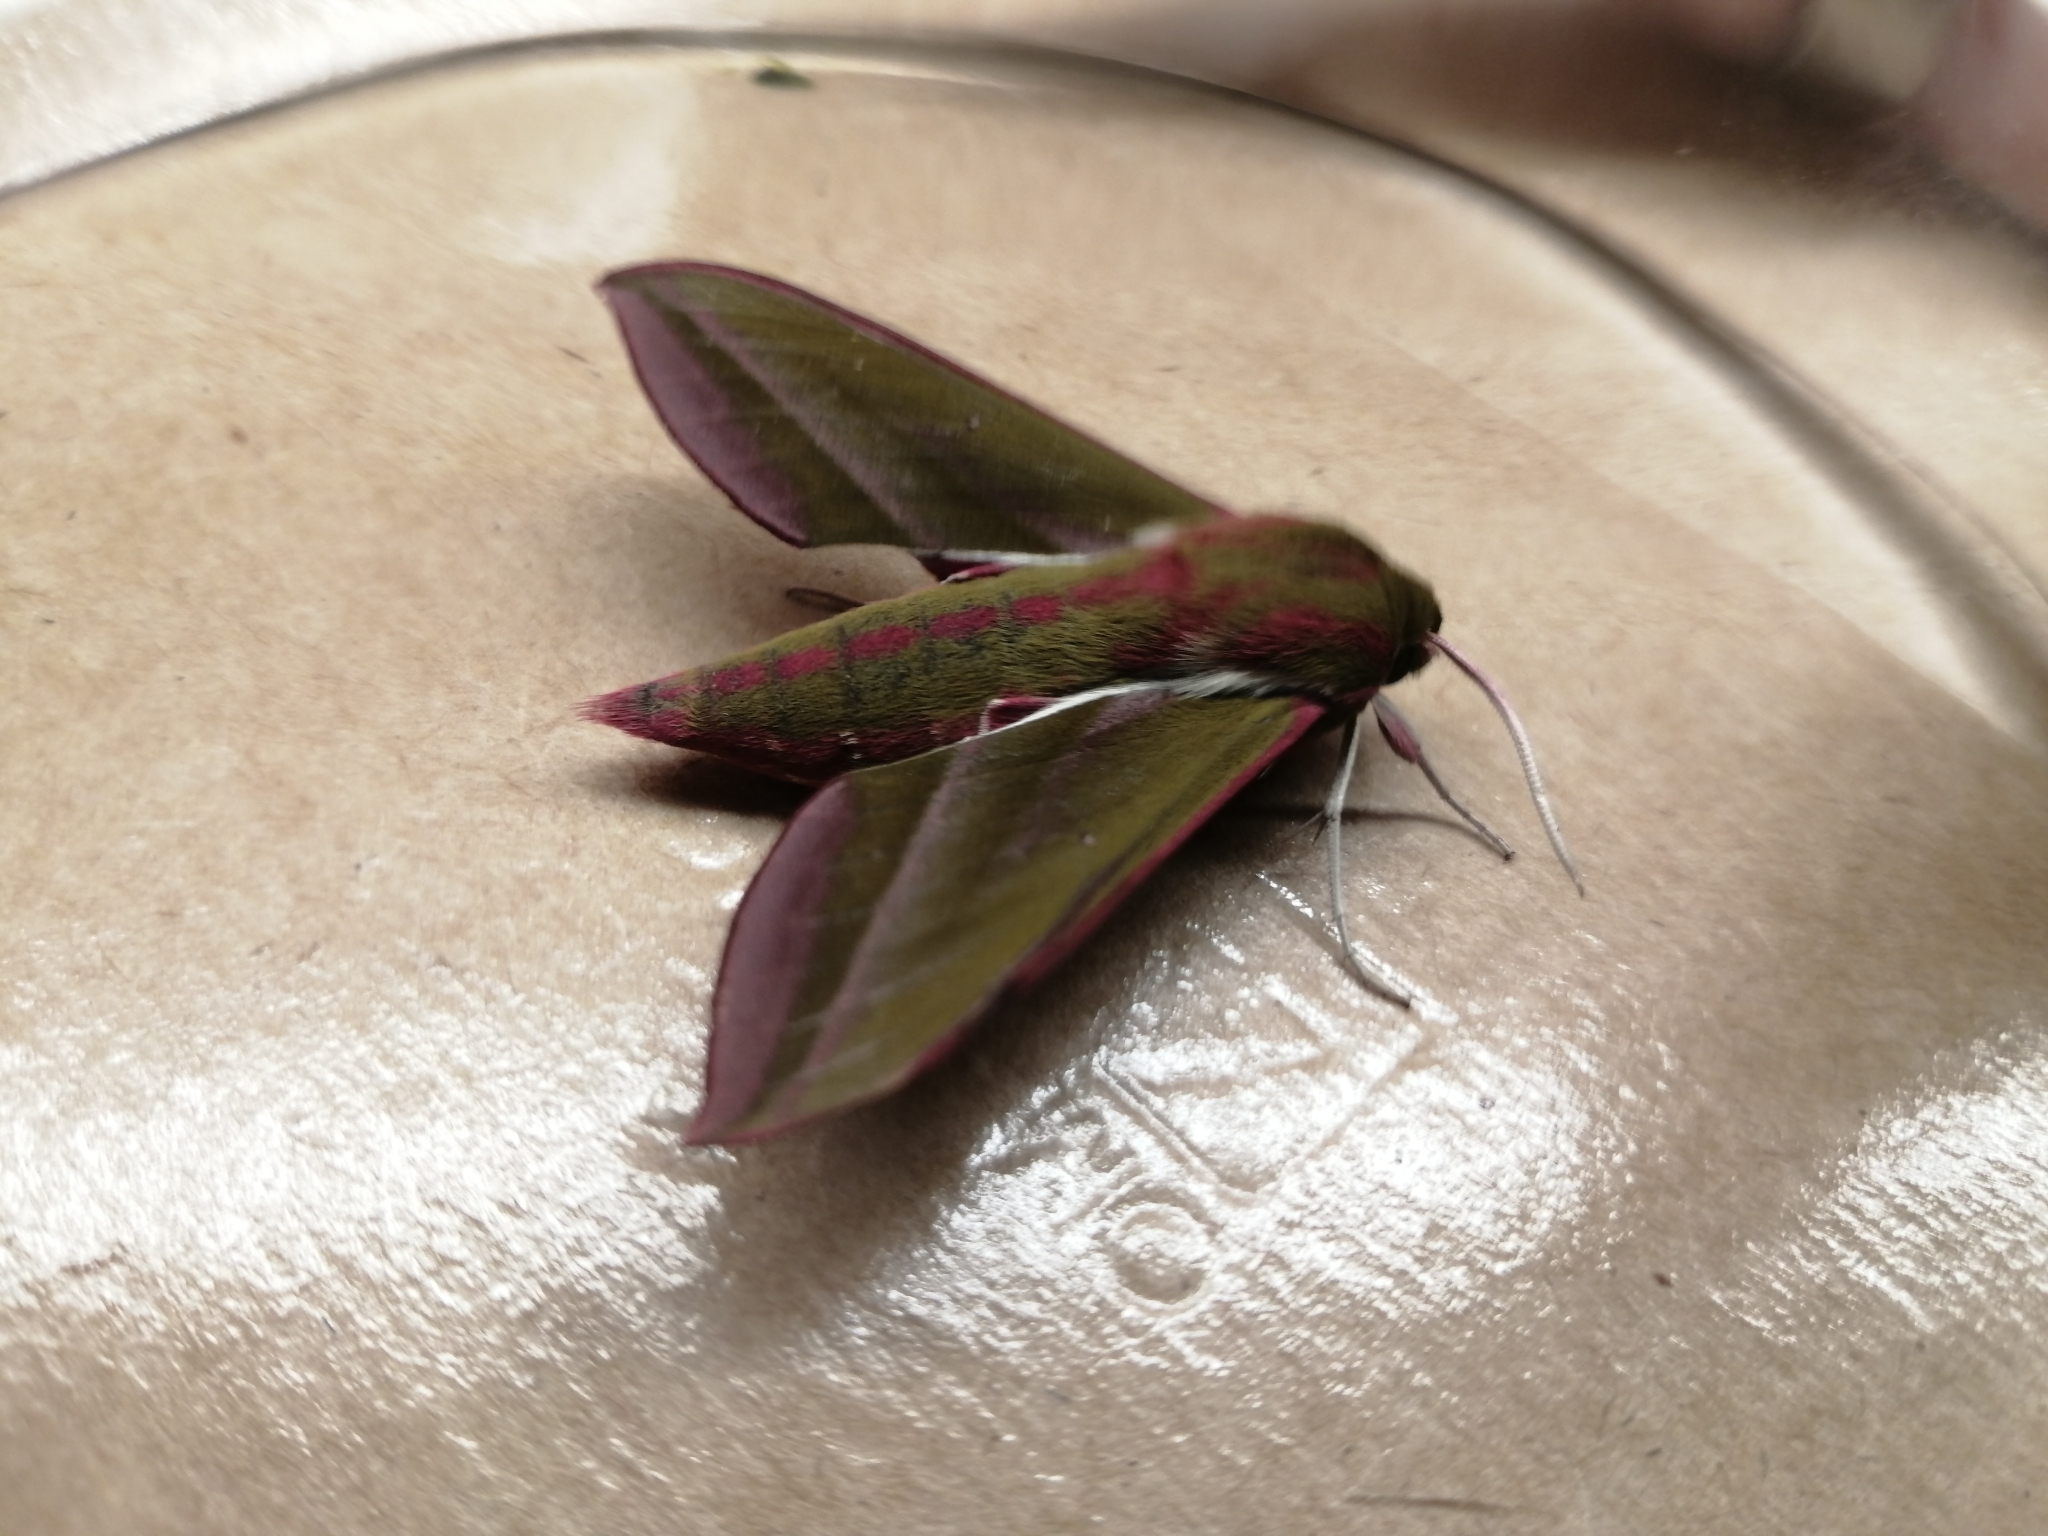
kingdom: Animalia
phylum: Arthropoda
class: Insecta
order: Lepidoptera
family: Sphingidae
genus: Deilephila
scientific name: Deilephila elpenor
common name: Elephant hawk-moth
